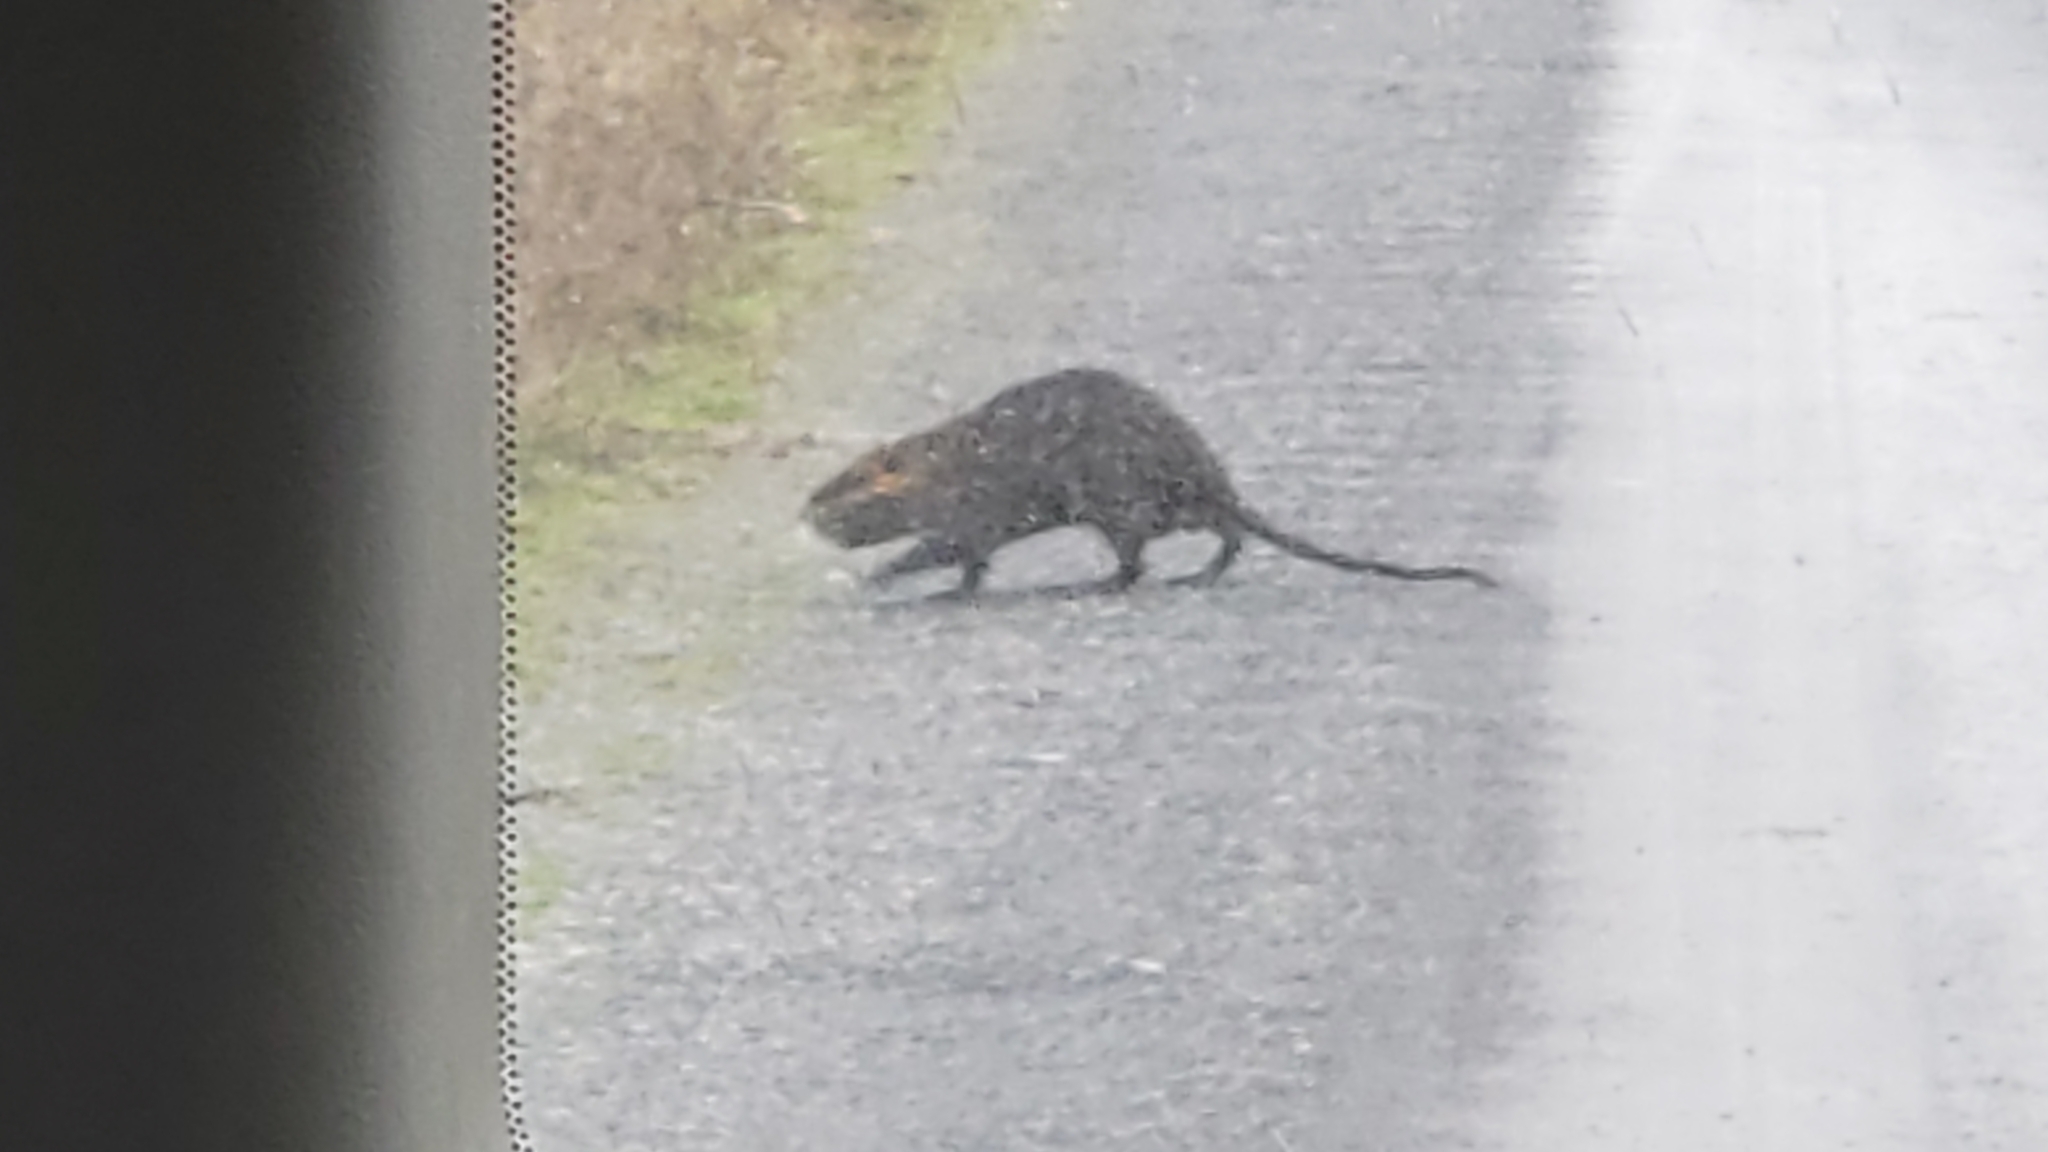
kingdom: Animalia
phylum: Chordata
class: Mammalia
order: Rodentia
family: Myocastoridae
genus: Myocastor
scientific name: Myocastor coypus
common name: Coypu
